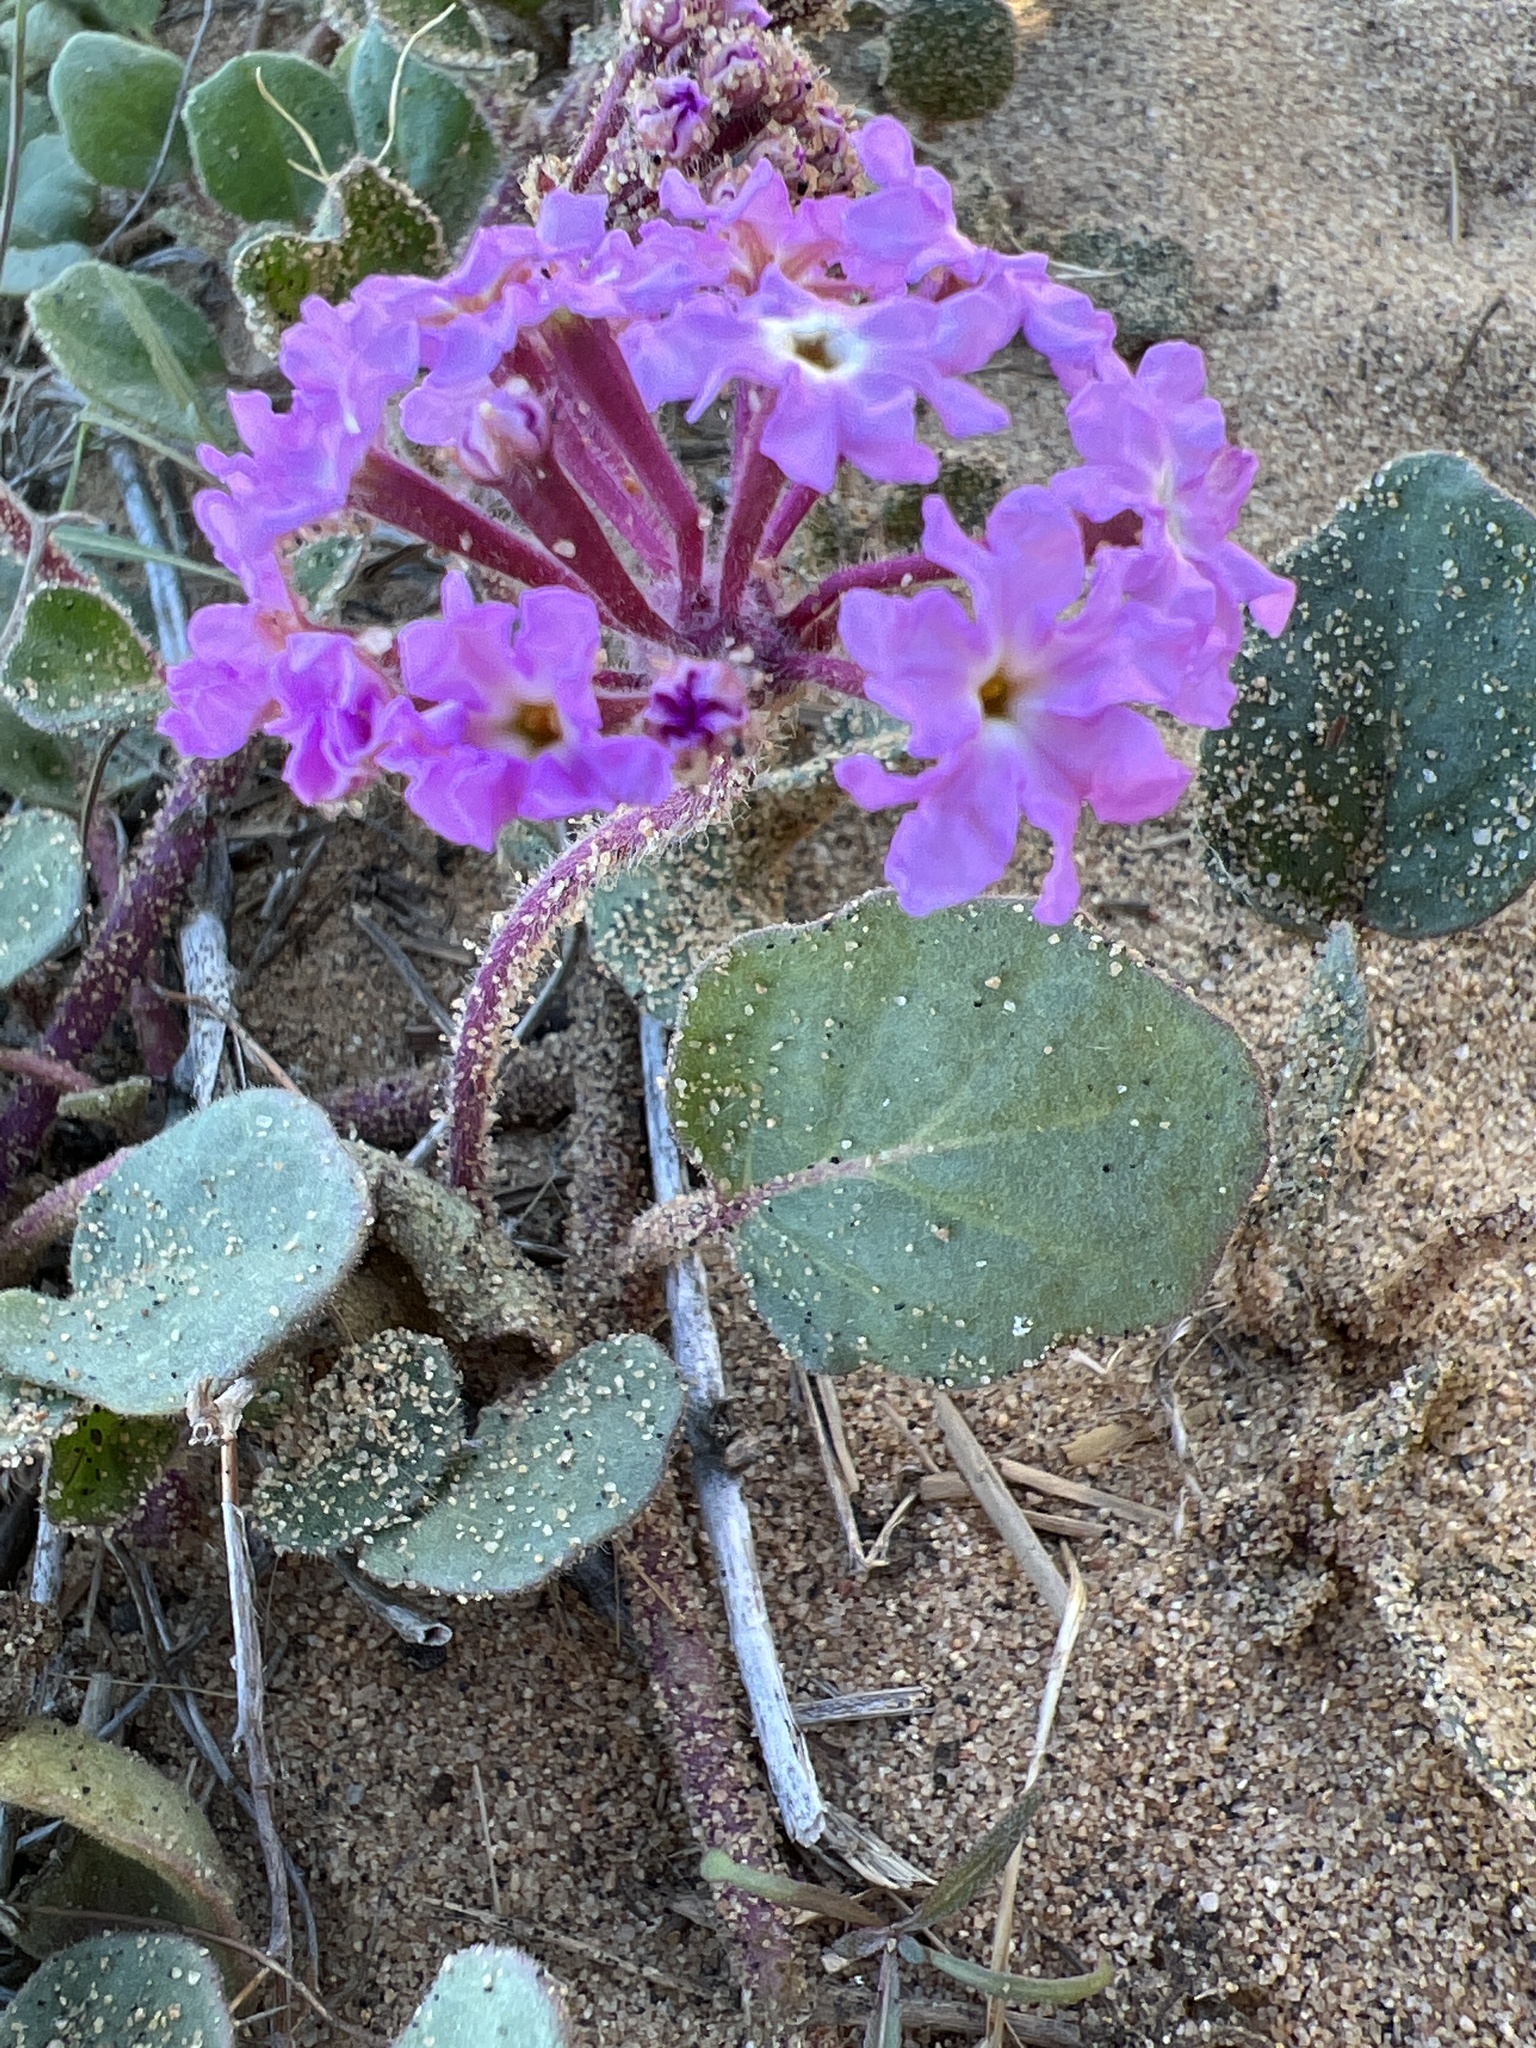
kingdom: Plantae
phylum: Tracheophyta
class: Magnoliopsida
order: Caryophyllales
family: Nyctaginaceae
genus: Abronia
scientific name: Abronia umbellata
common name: Sand-verbena
